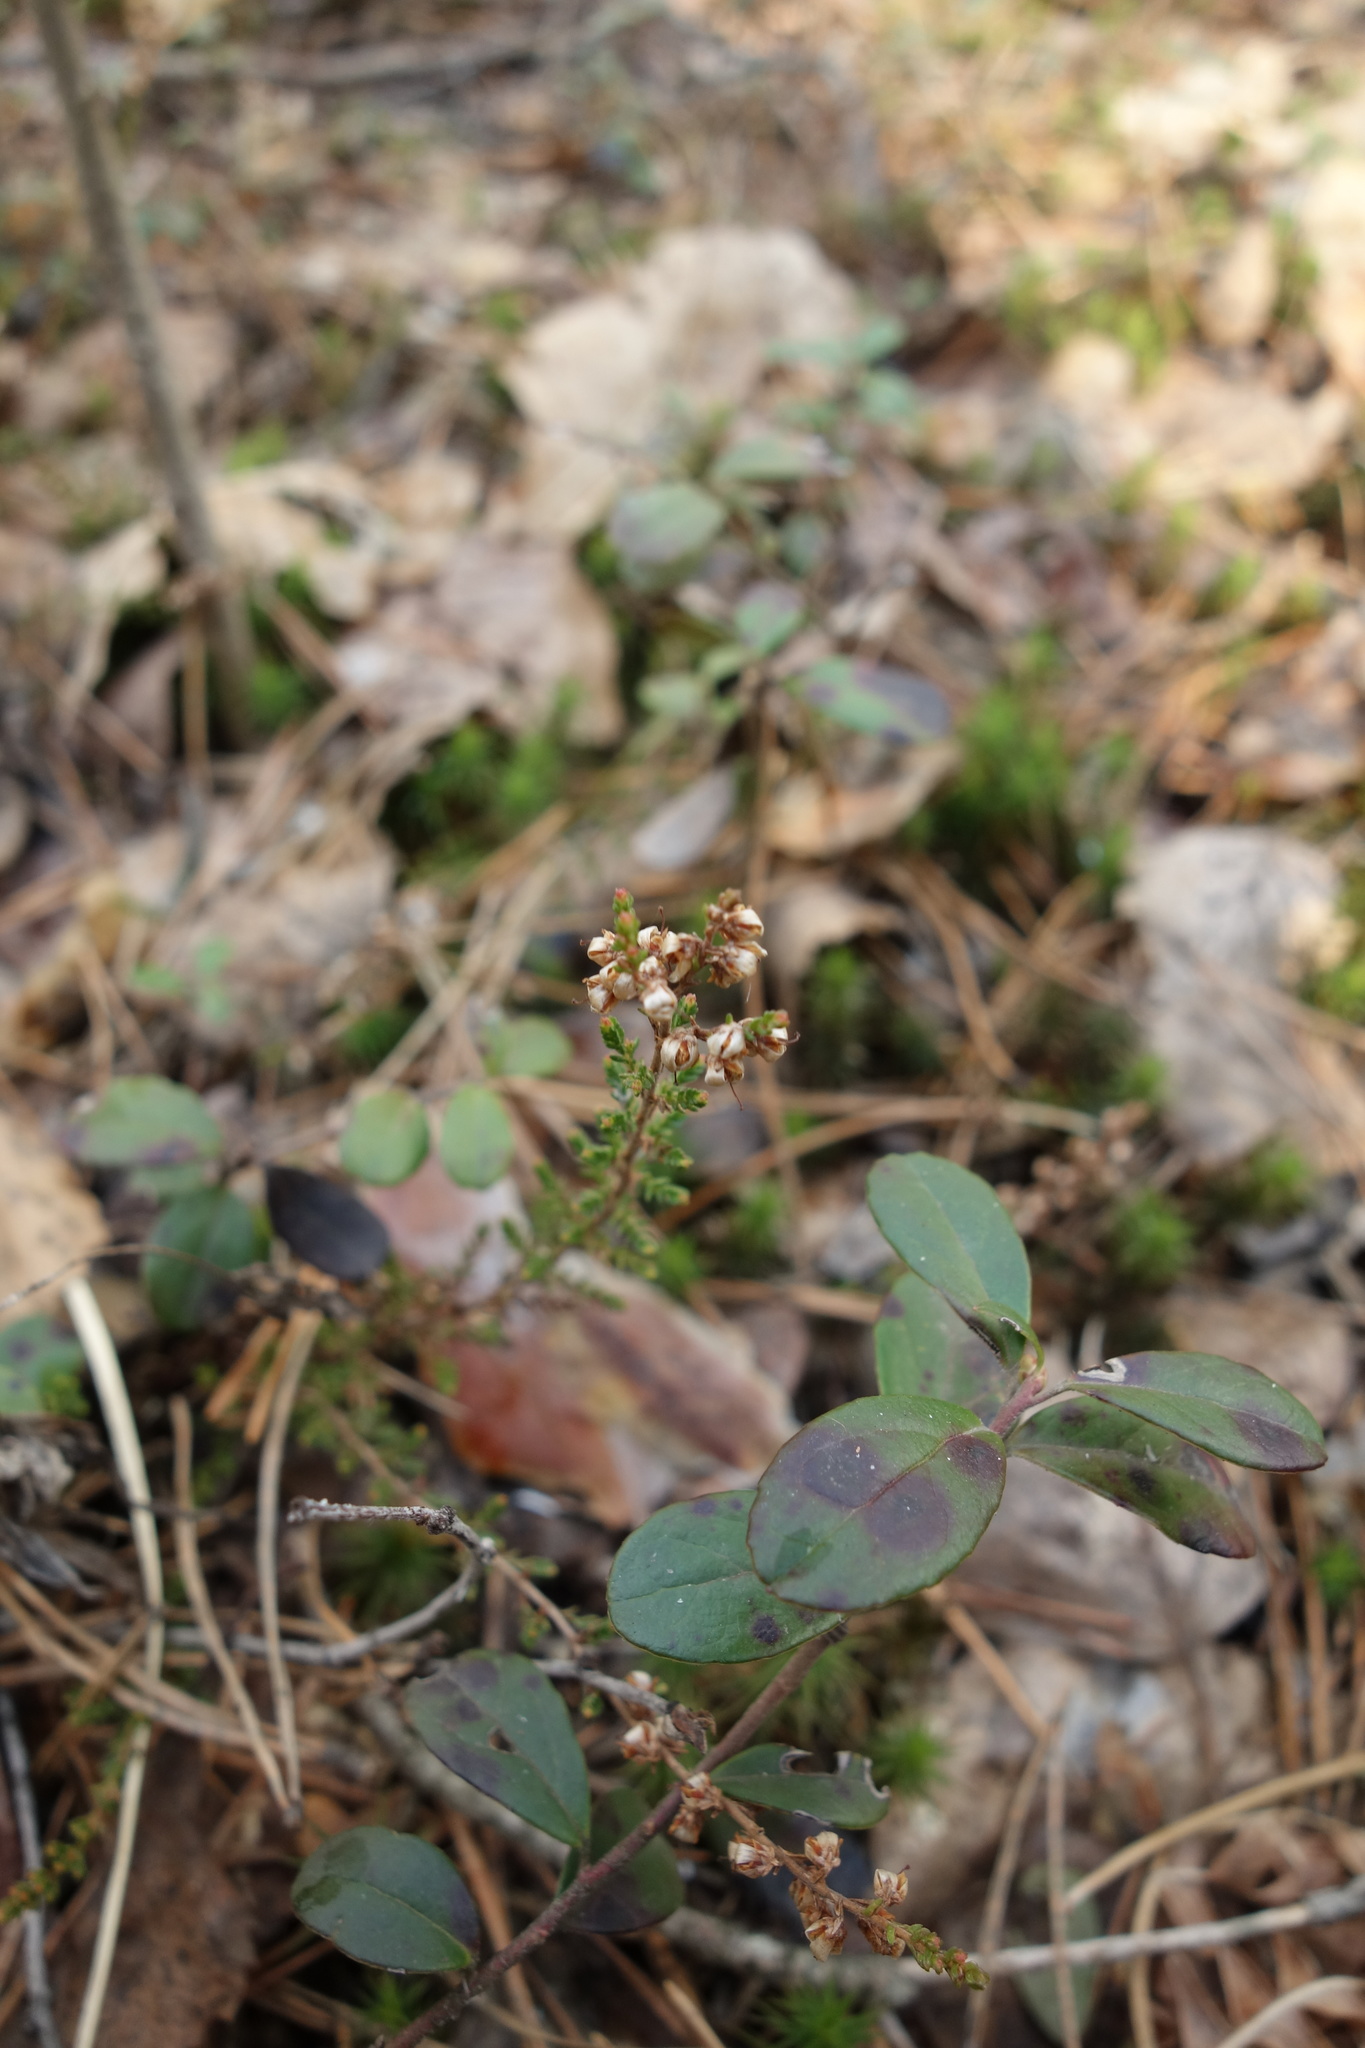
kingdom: Plantae
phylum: Tracheophyta
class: Magnoliopsida
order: Ericales
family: Ericaceae
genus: Calluna
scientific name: Calluna vulgaris
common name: Heather
